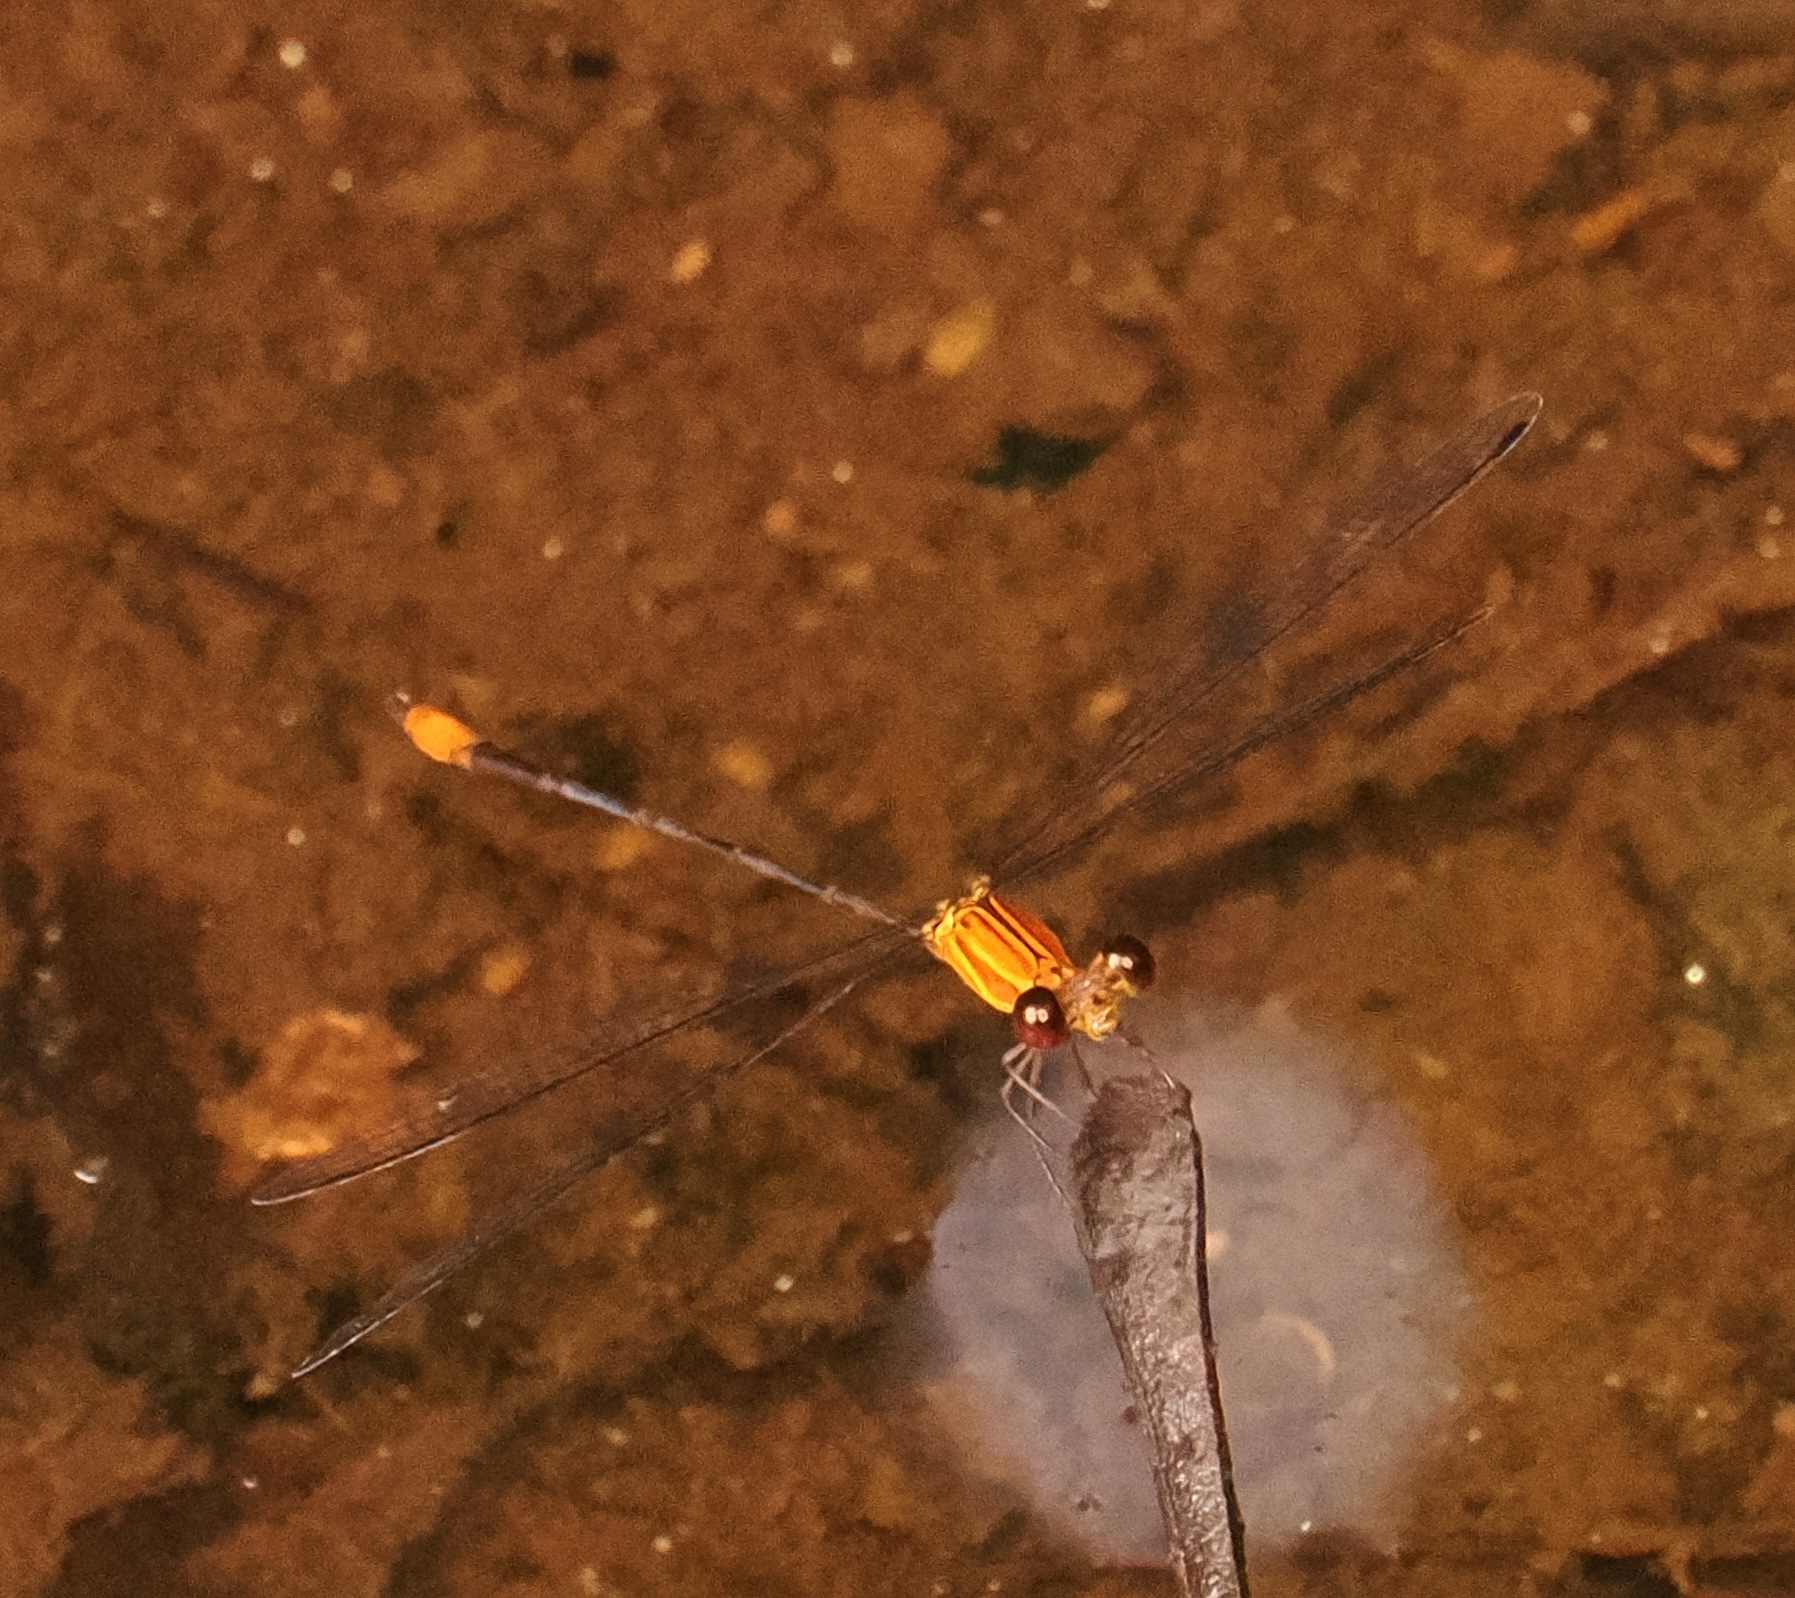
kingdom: Animalia
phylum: Arthropoda
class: Insecta
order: Odonata
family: Heteragrionidae
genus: Heteragrion
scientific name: Heteragrion aurantiacum
